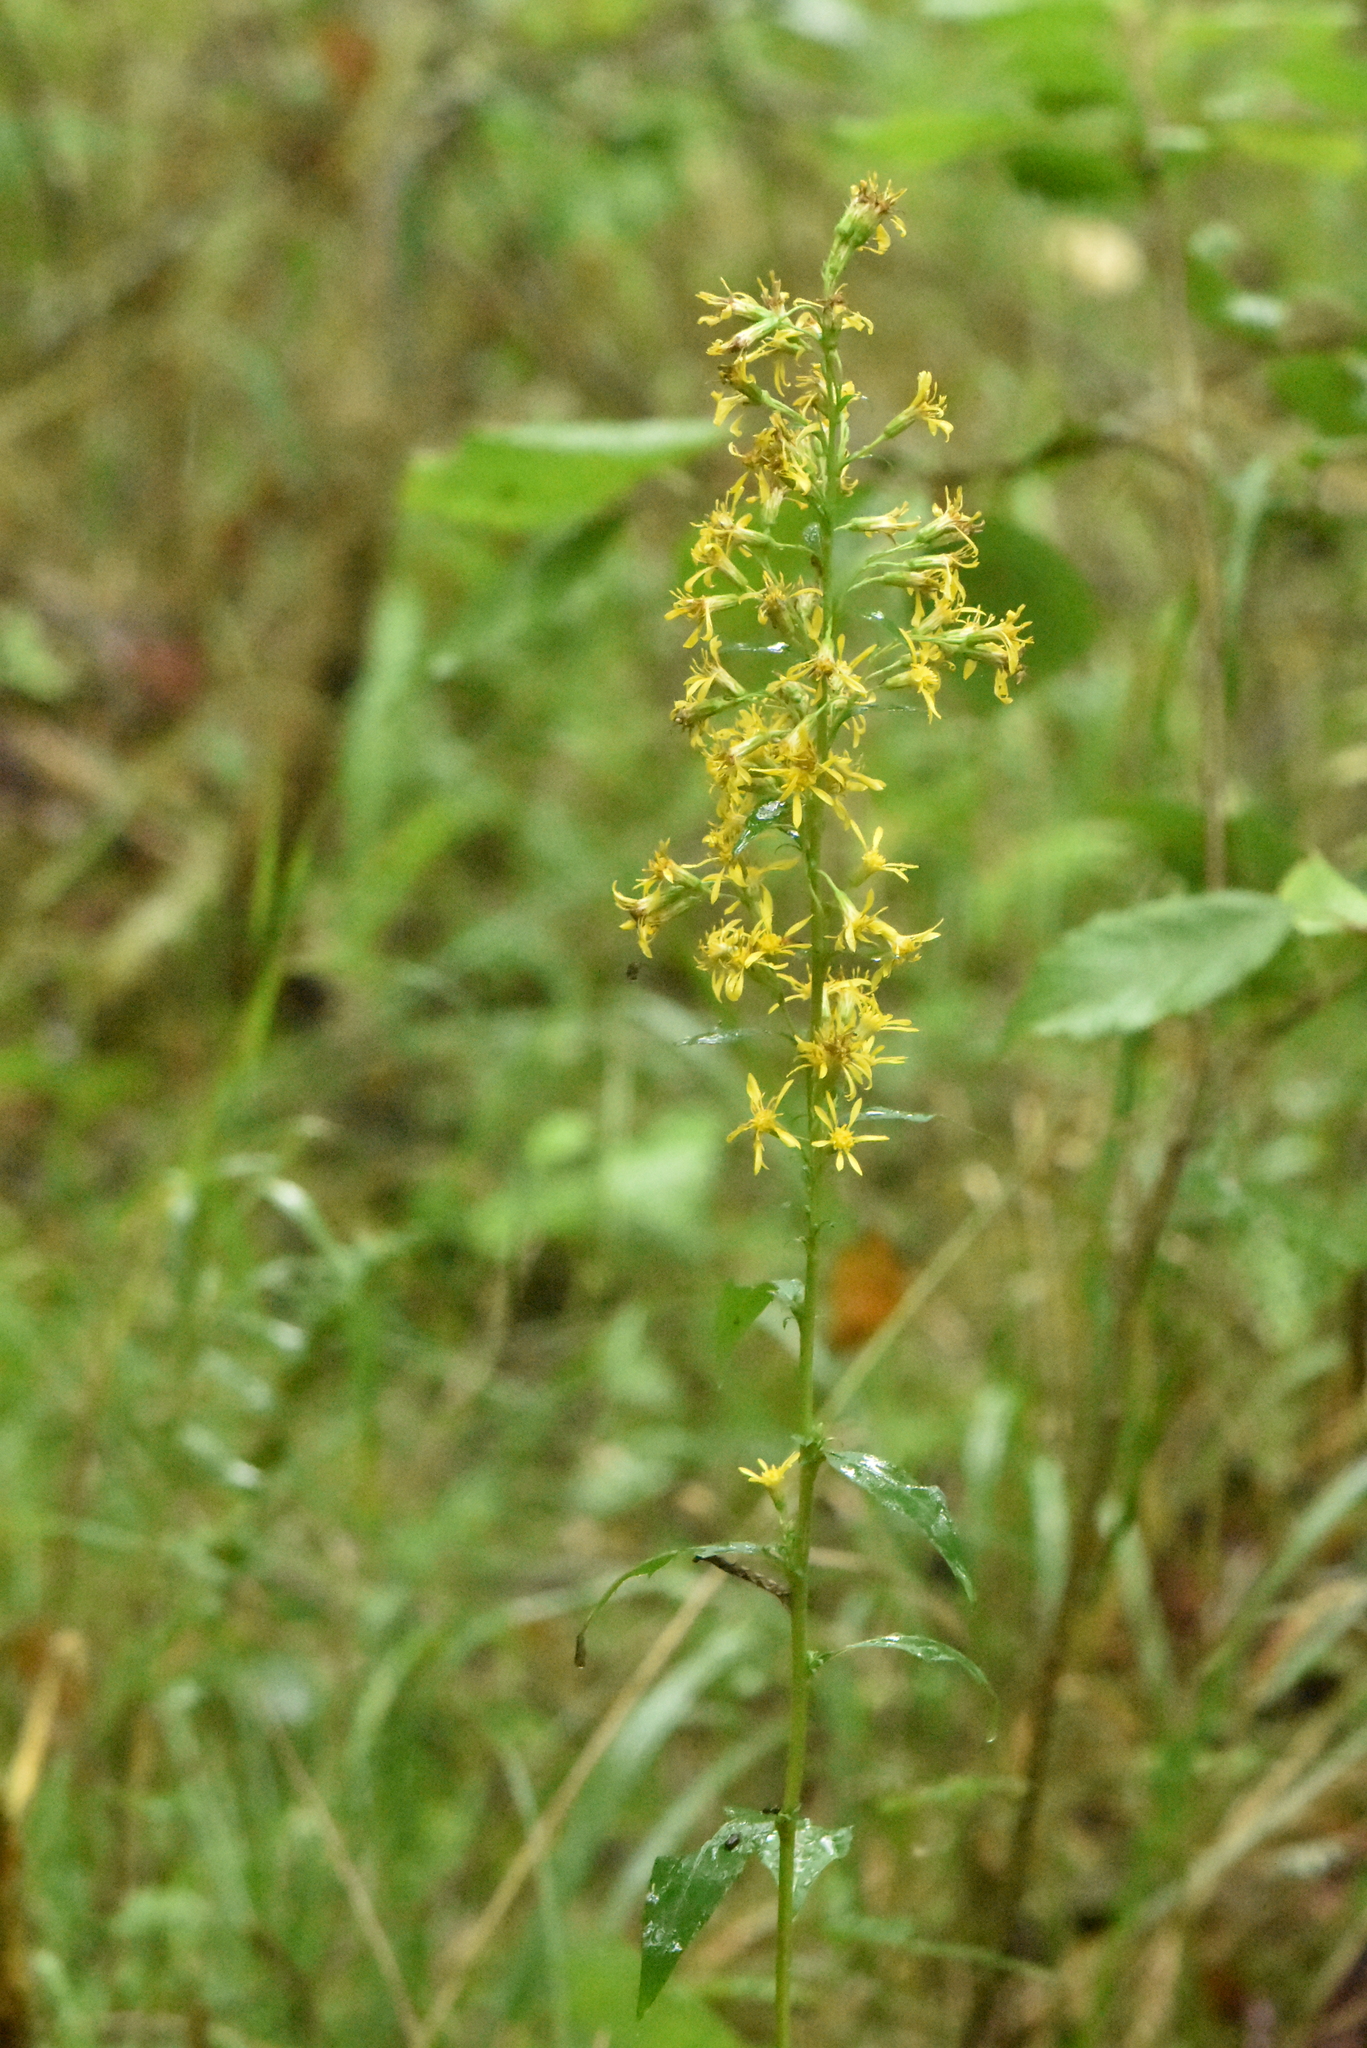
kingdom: Plantae
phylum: Tracheophyta
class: Magnoliopsida
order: Asterales
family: Asteraceae
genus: Solidago
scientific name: Solidago virgaurea
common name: Goldenrod
